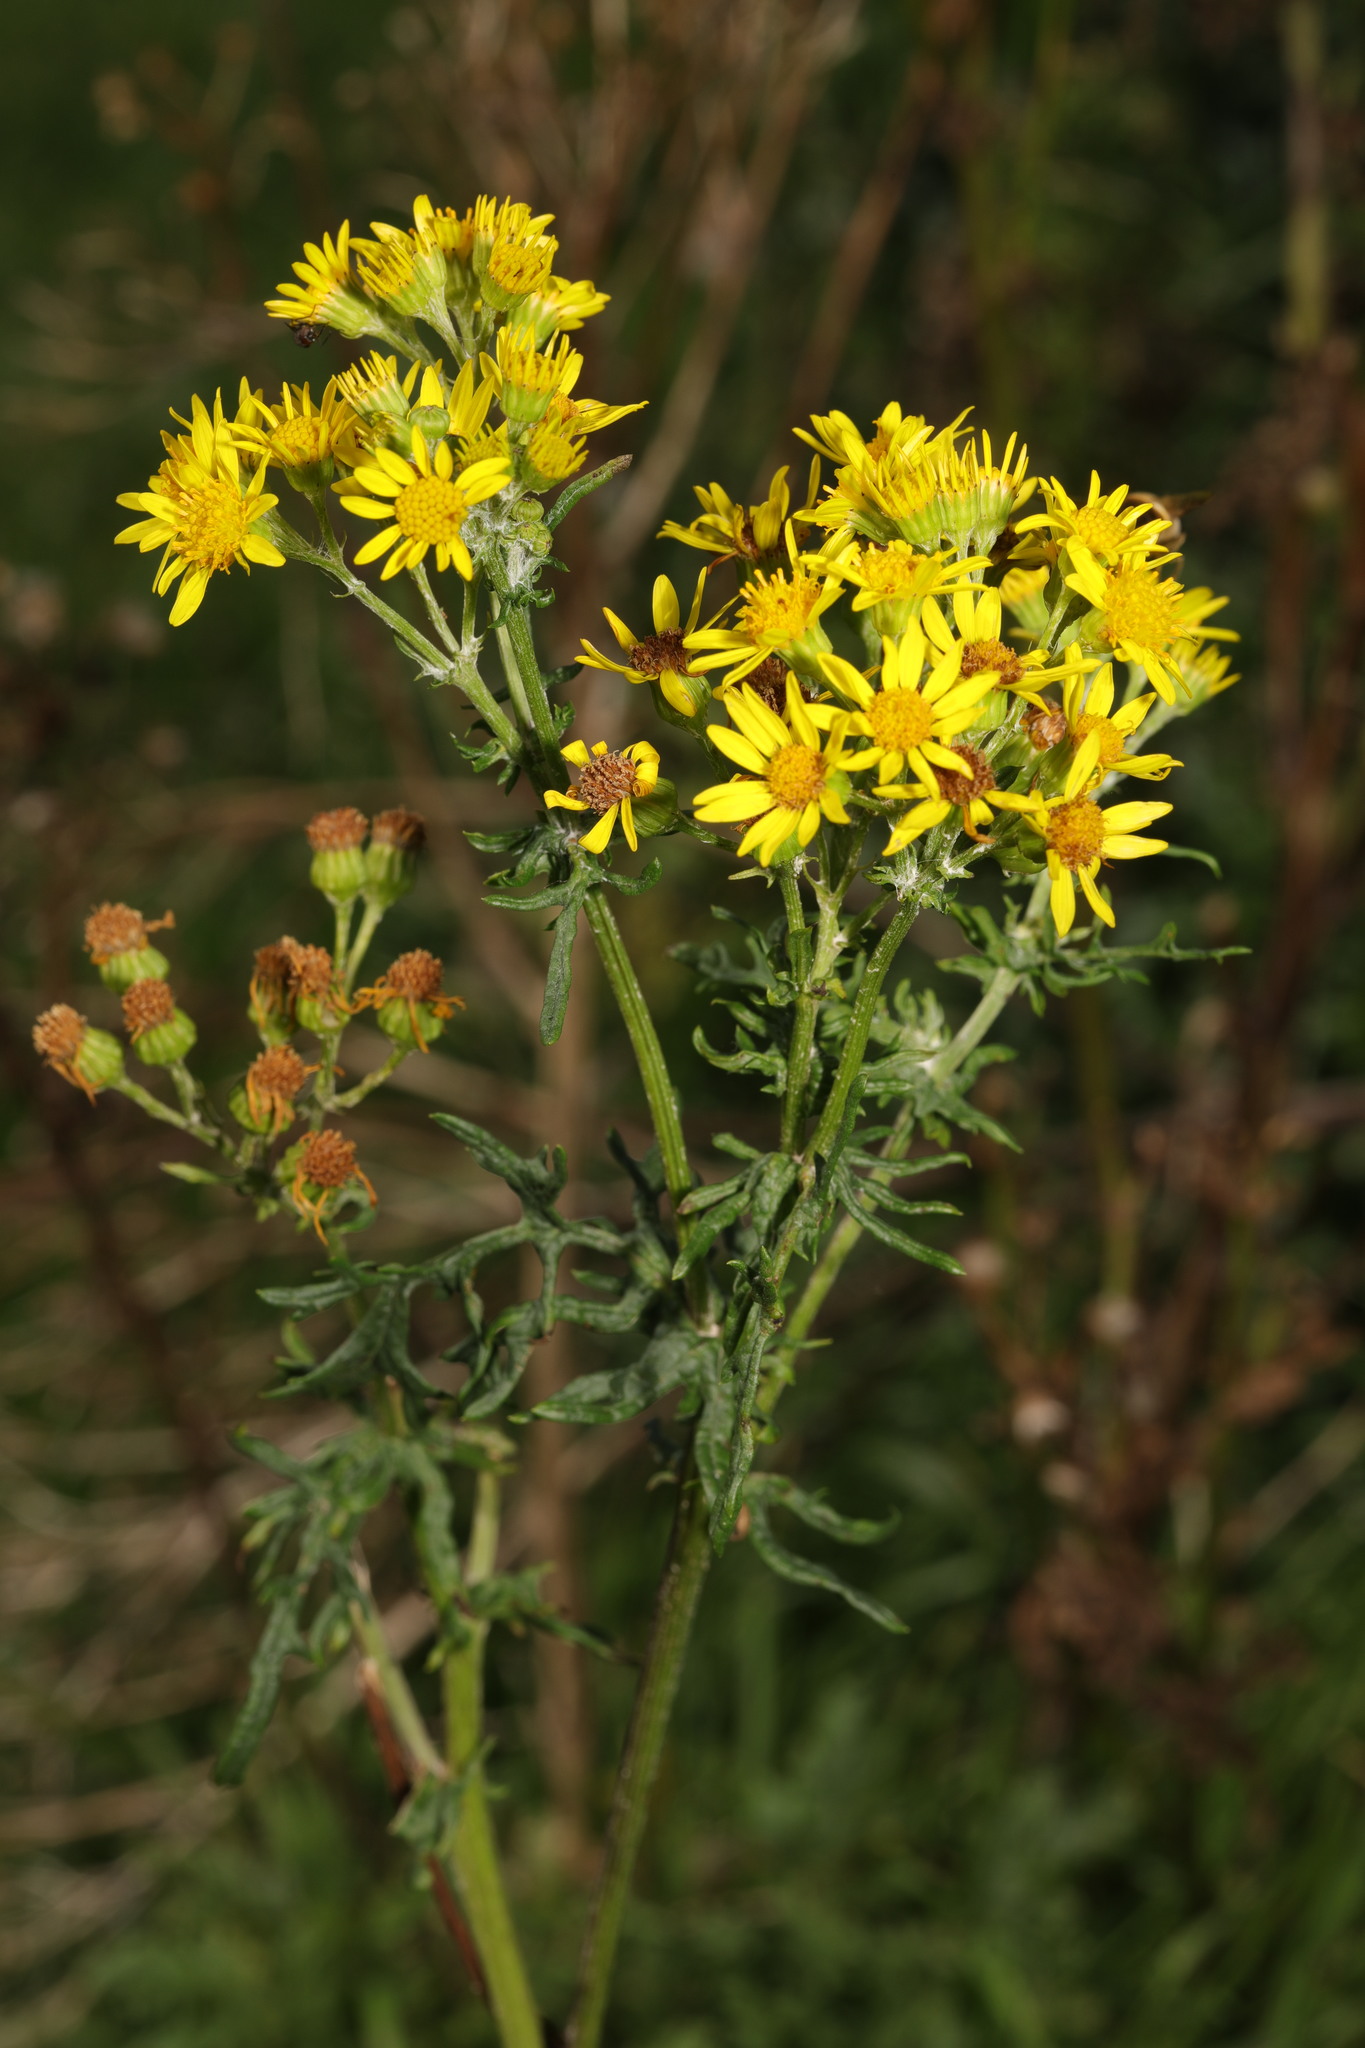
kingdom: Plantae
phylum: Tracheophyta
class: Magnoliopsida
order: Asterales
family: Asteraceae
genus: Jacobaea
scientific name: Jacobaea vulgaris
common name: Stinking willie
